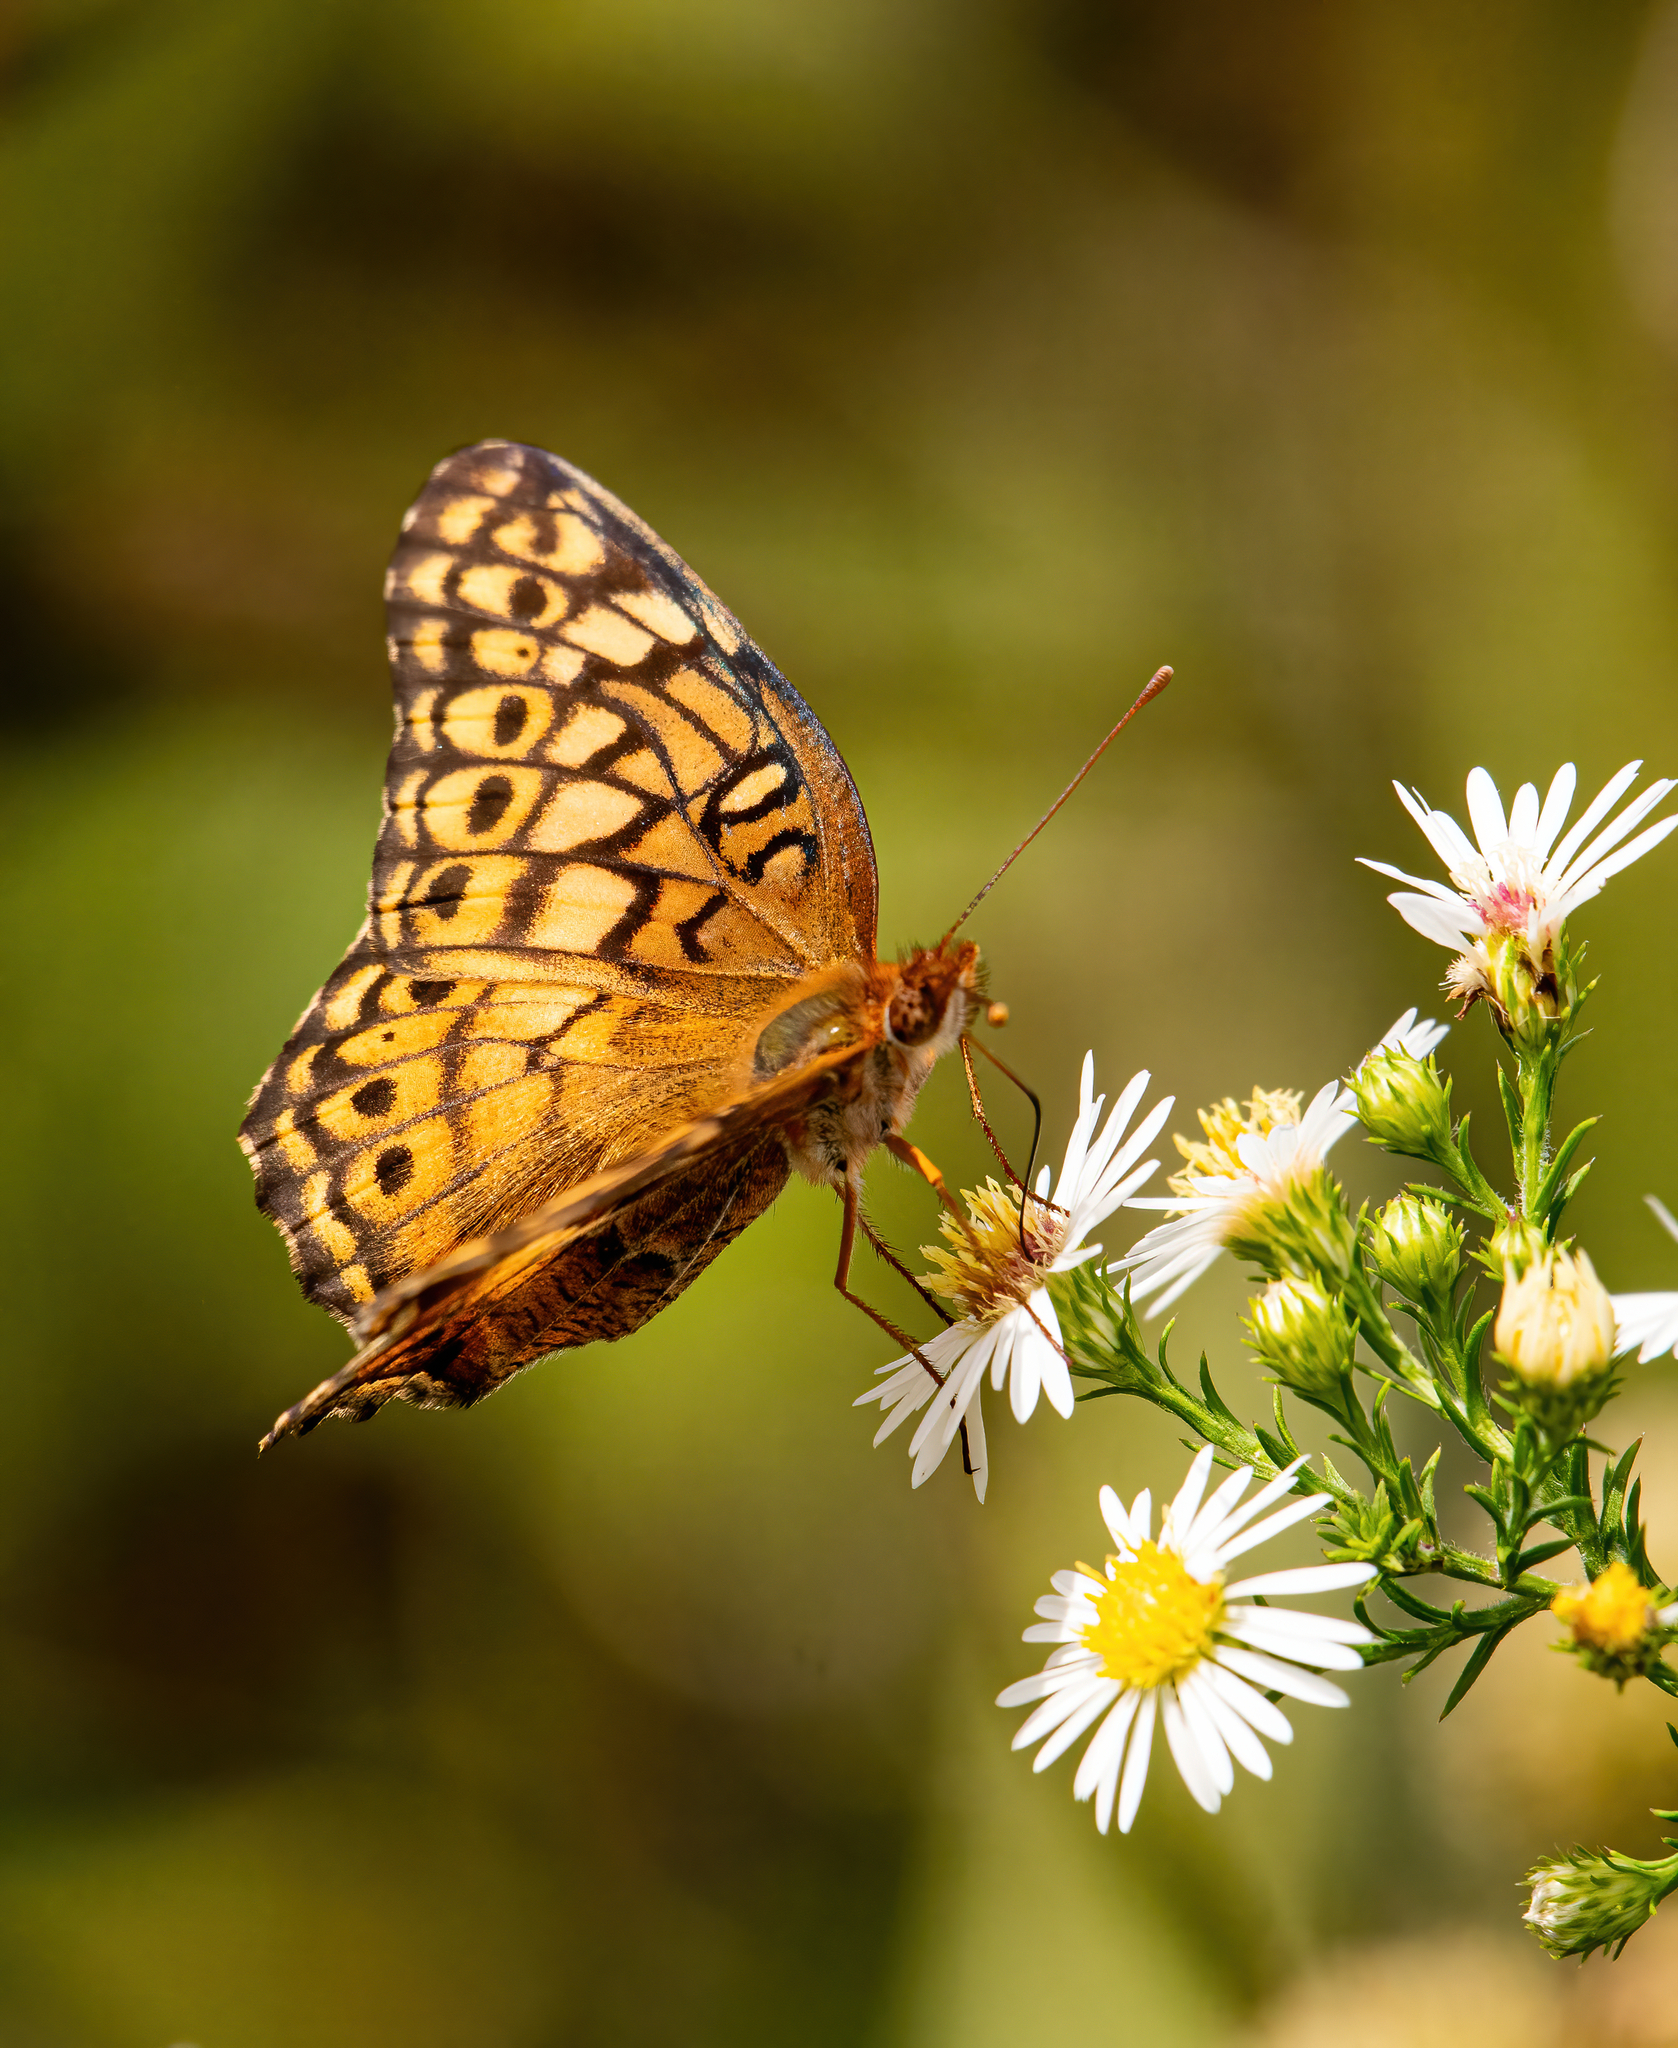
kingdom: Animalia
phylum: Arthropoda
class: Insecta
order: Lepidoptera
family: Nymphalidae
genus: Euptoieta
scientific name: Euptoieta claudia
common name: Variegated fritillary
